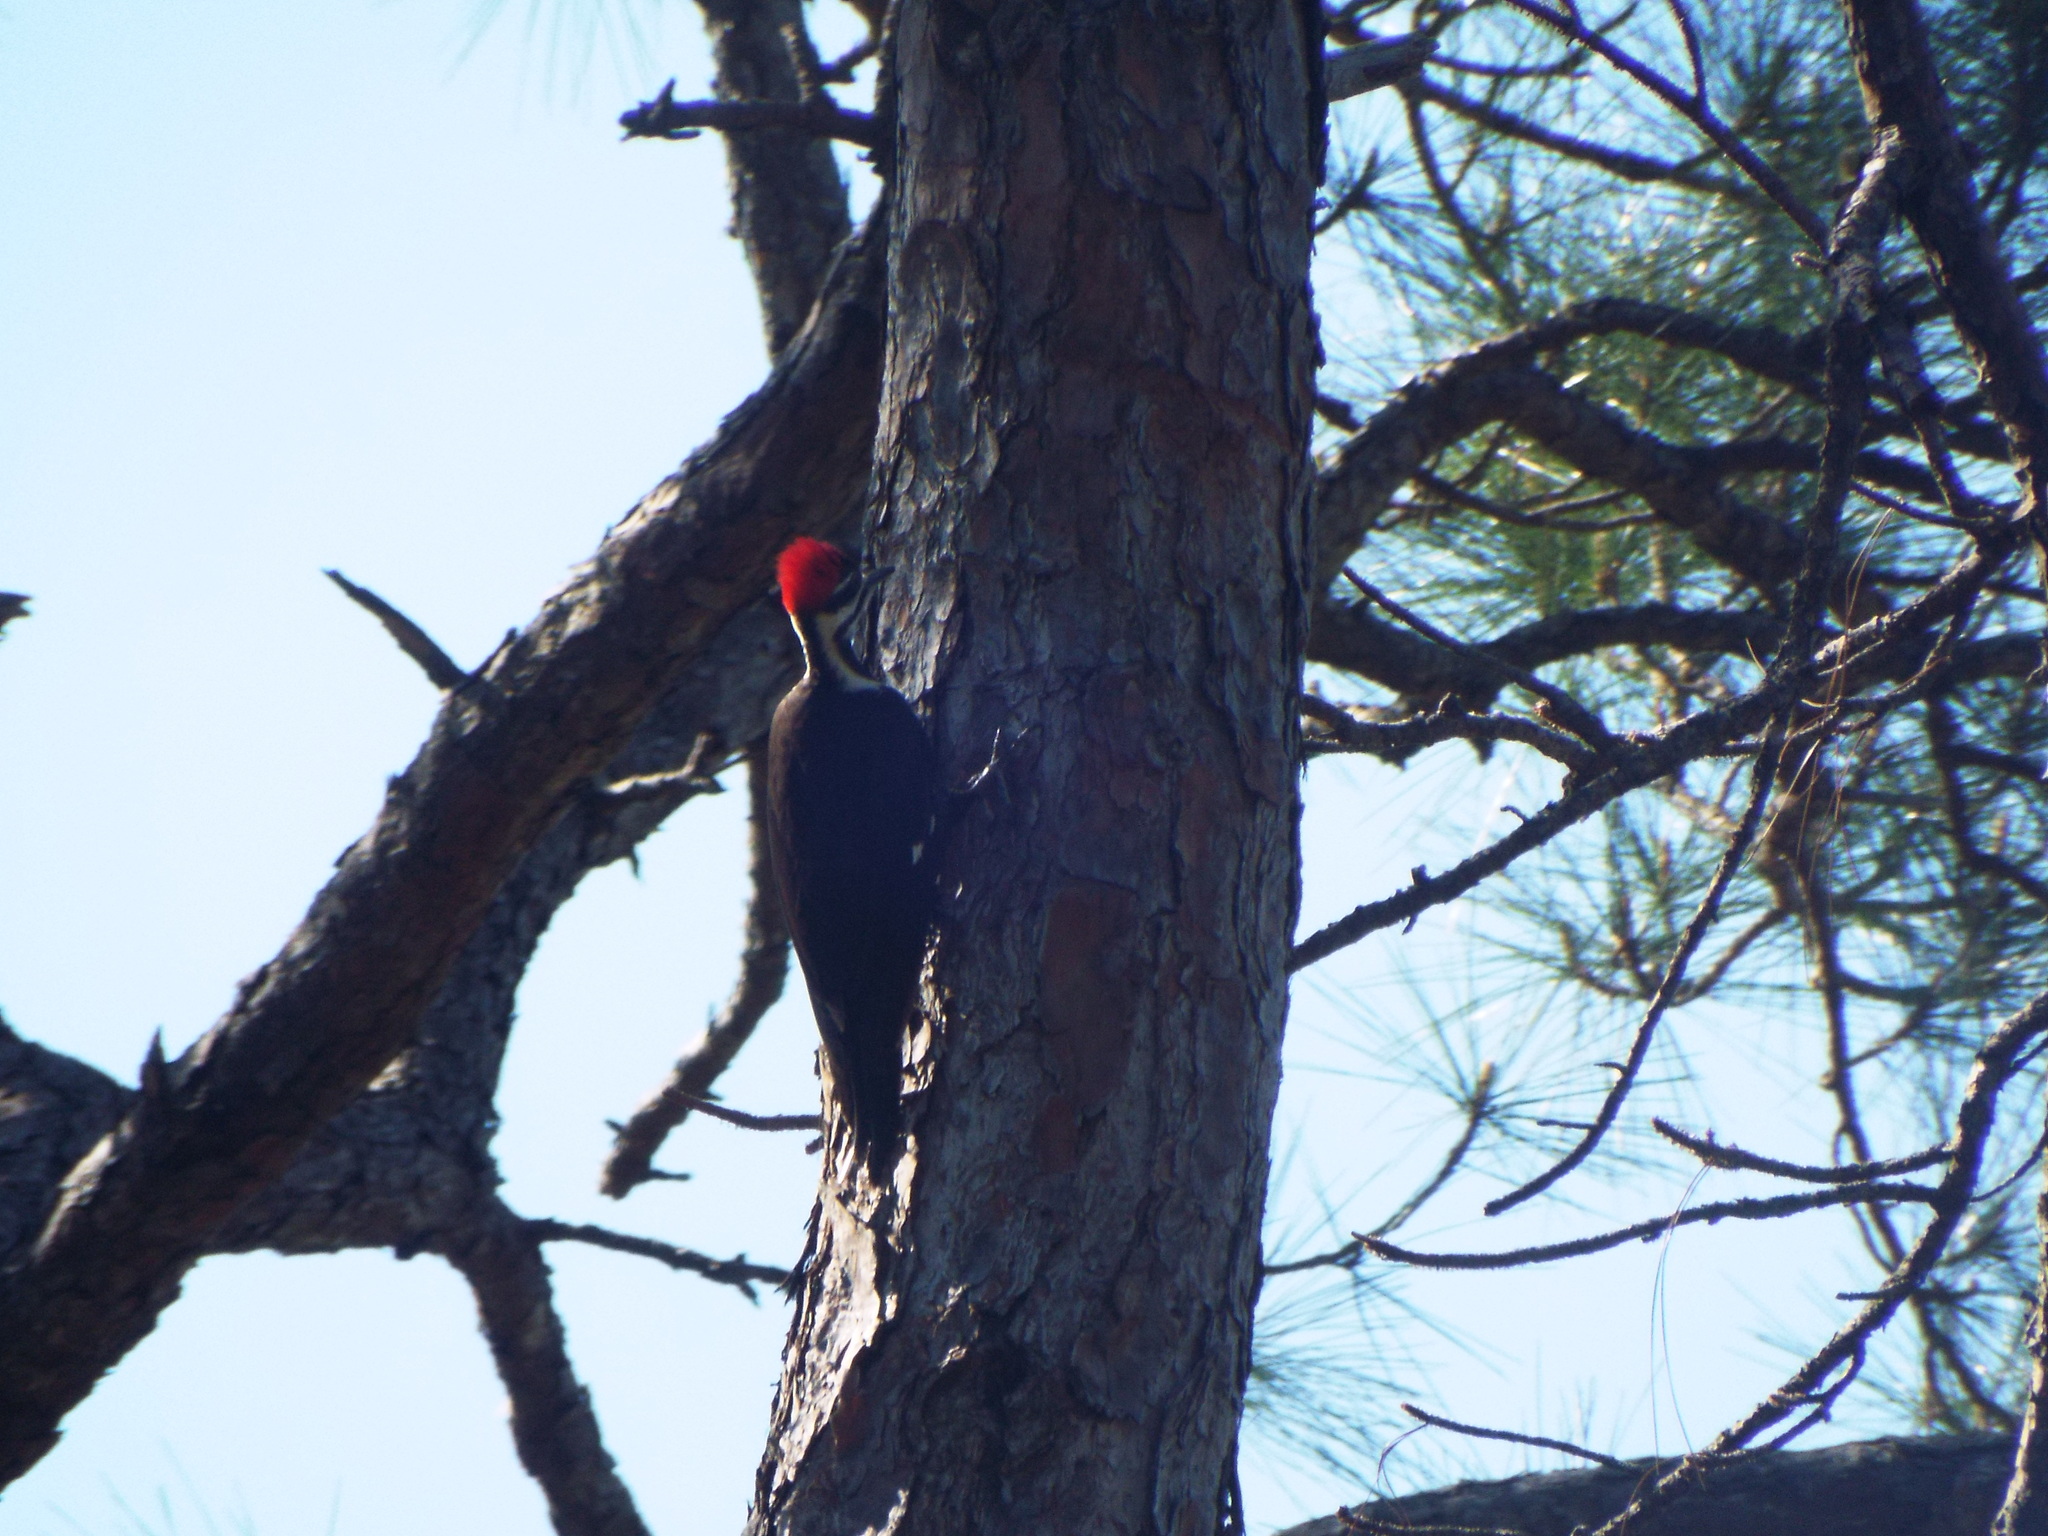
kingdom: Animalia
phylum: Chordata
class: Aves
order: Piciformes
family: Picidae
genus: Dryocopus
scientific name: Dryocopus pileatus
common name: Pileated woodpecker
